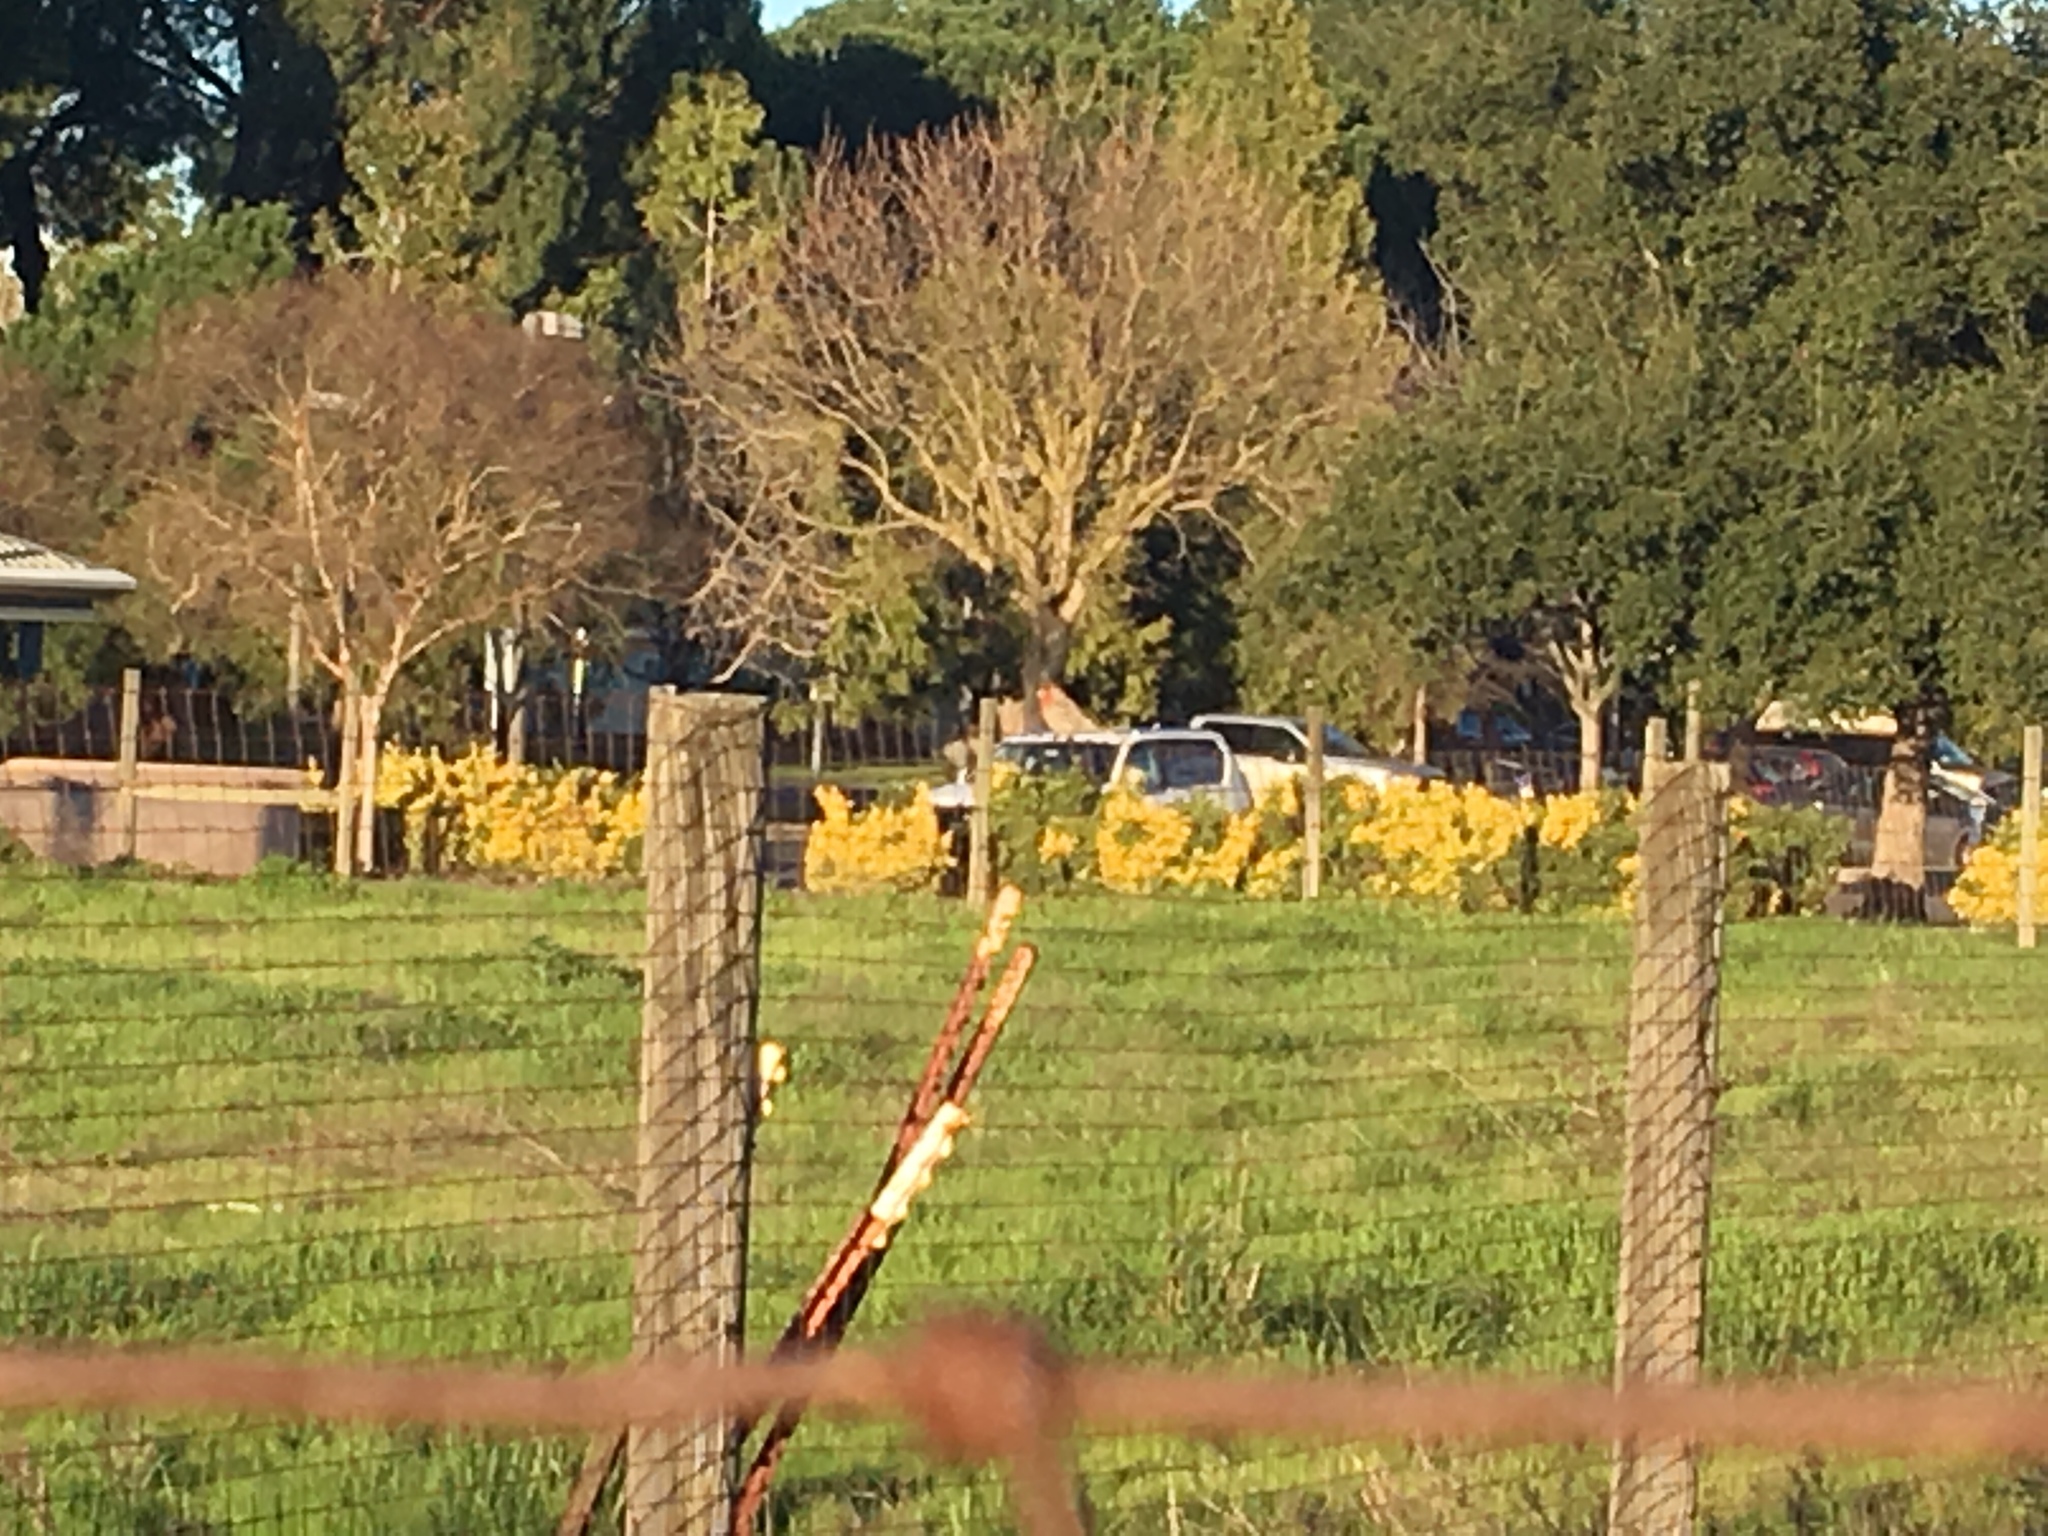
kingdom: Animalia
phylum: Chordata
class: Aves
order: Passeriformes
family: Fringillidae
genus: Haemorhous
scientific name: Haemorhous mexicanus
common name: House finch
